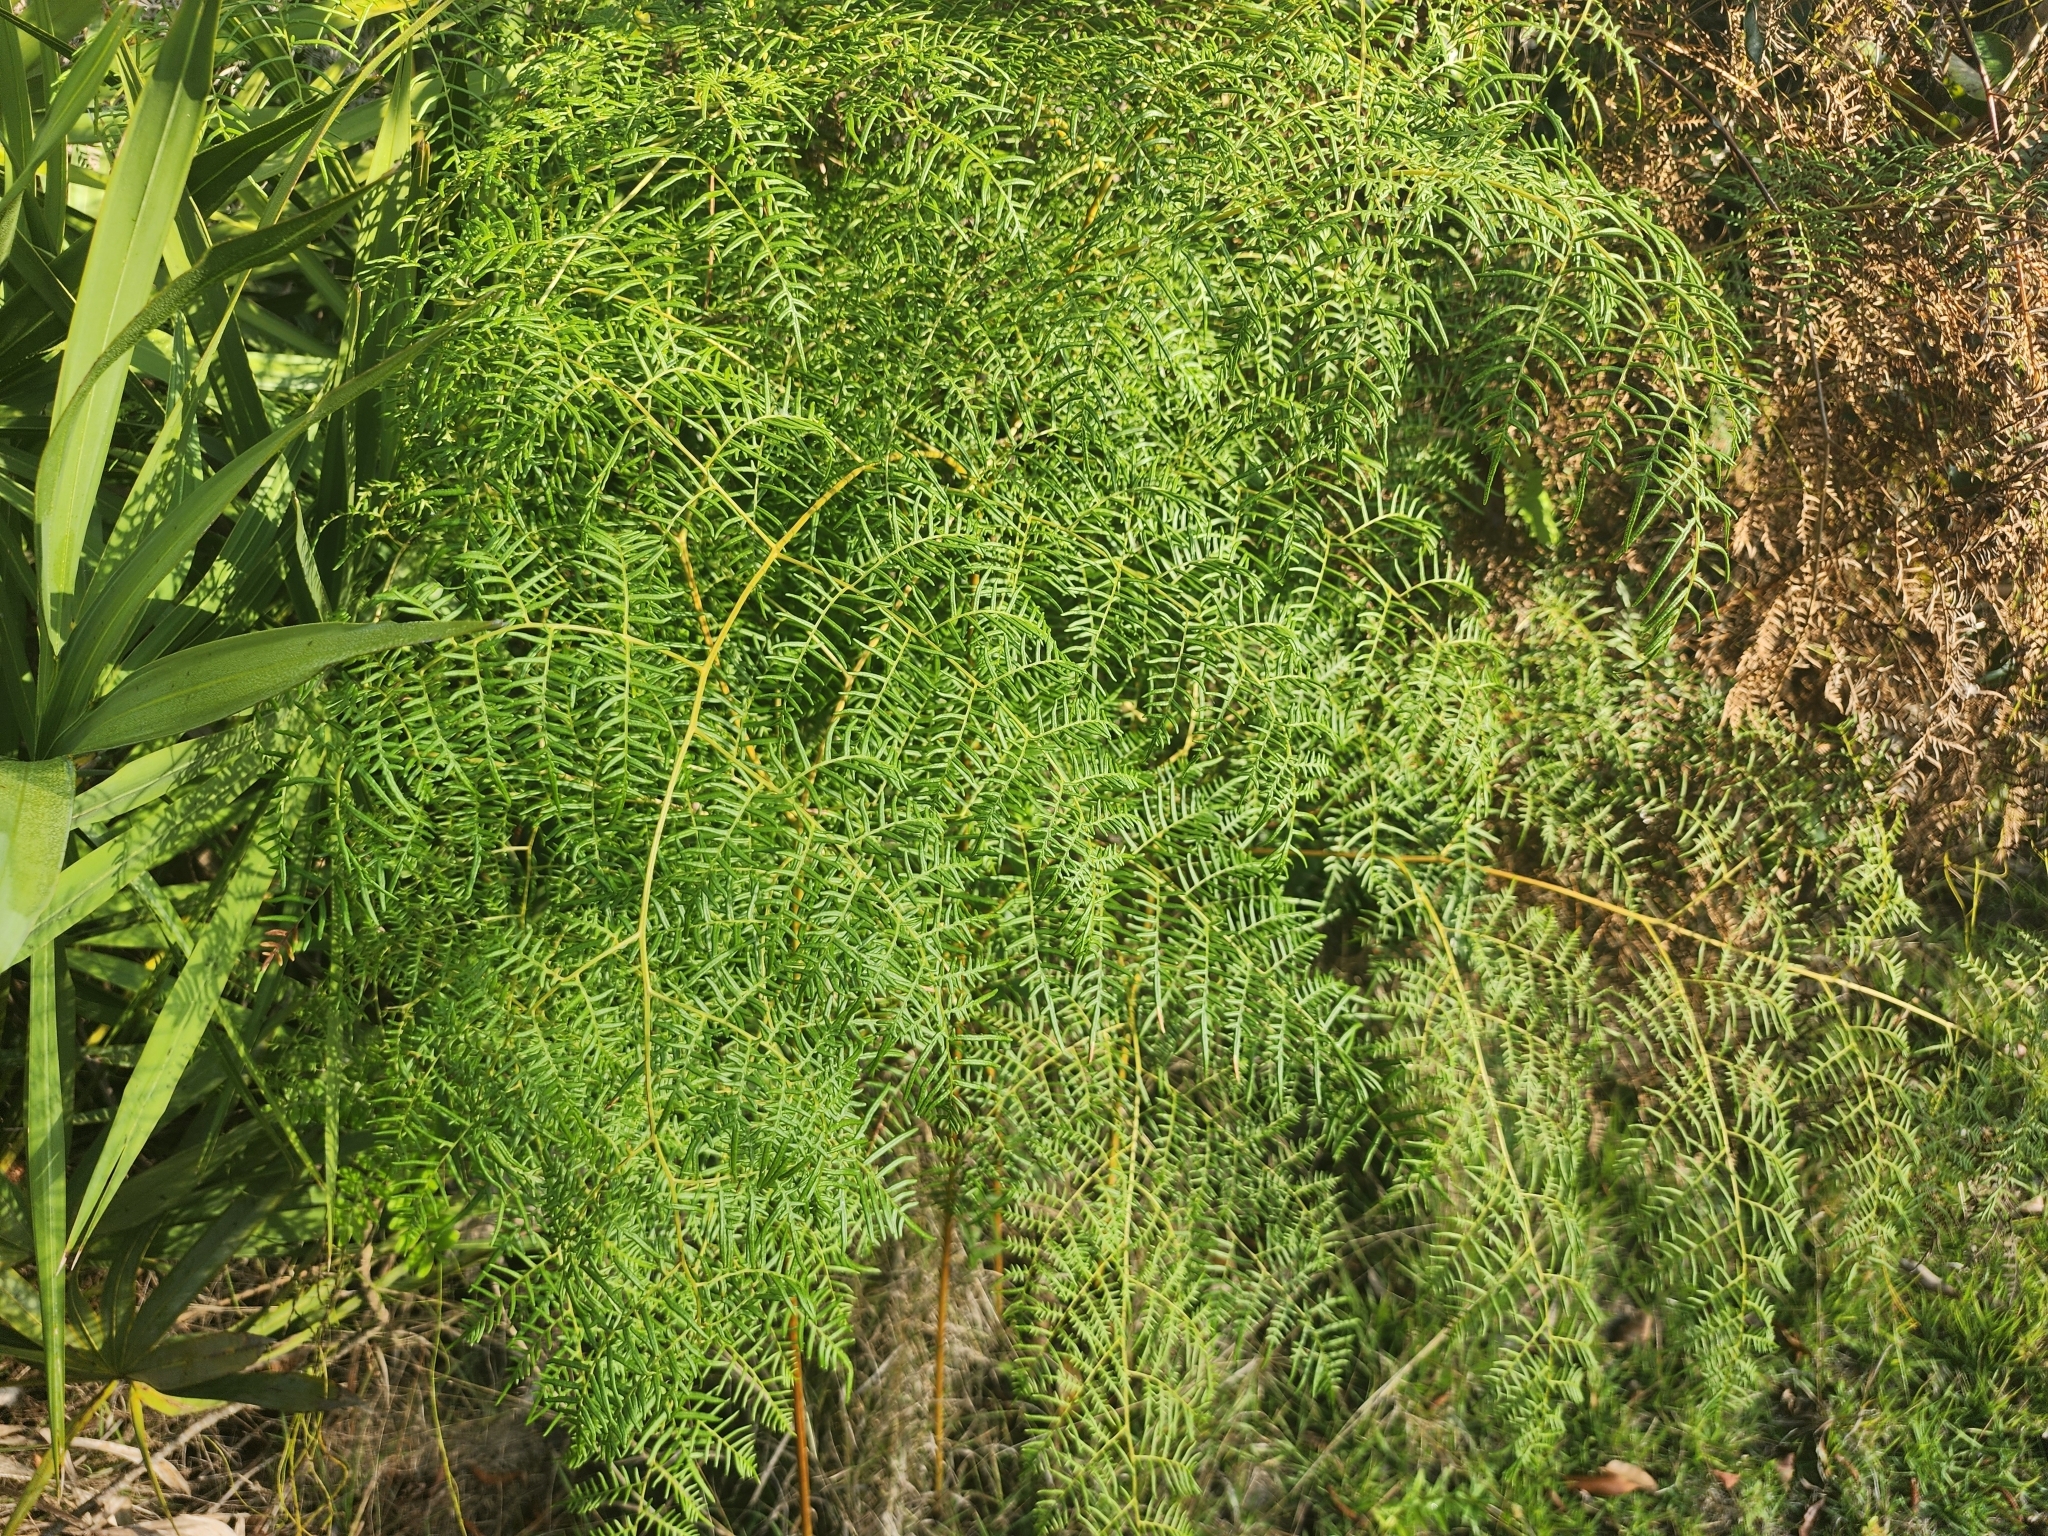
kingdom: Plantae
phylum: Tracheophyta
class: Polypodiopsida
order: Polypodiales
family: Dennstaedtiaceae
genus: Pteridium
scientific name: Pteridium caudatum
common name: Southern bracken fern
